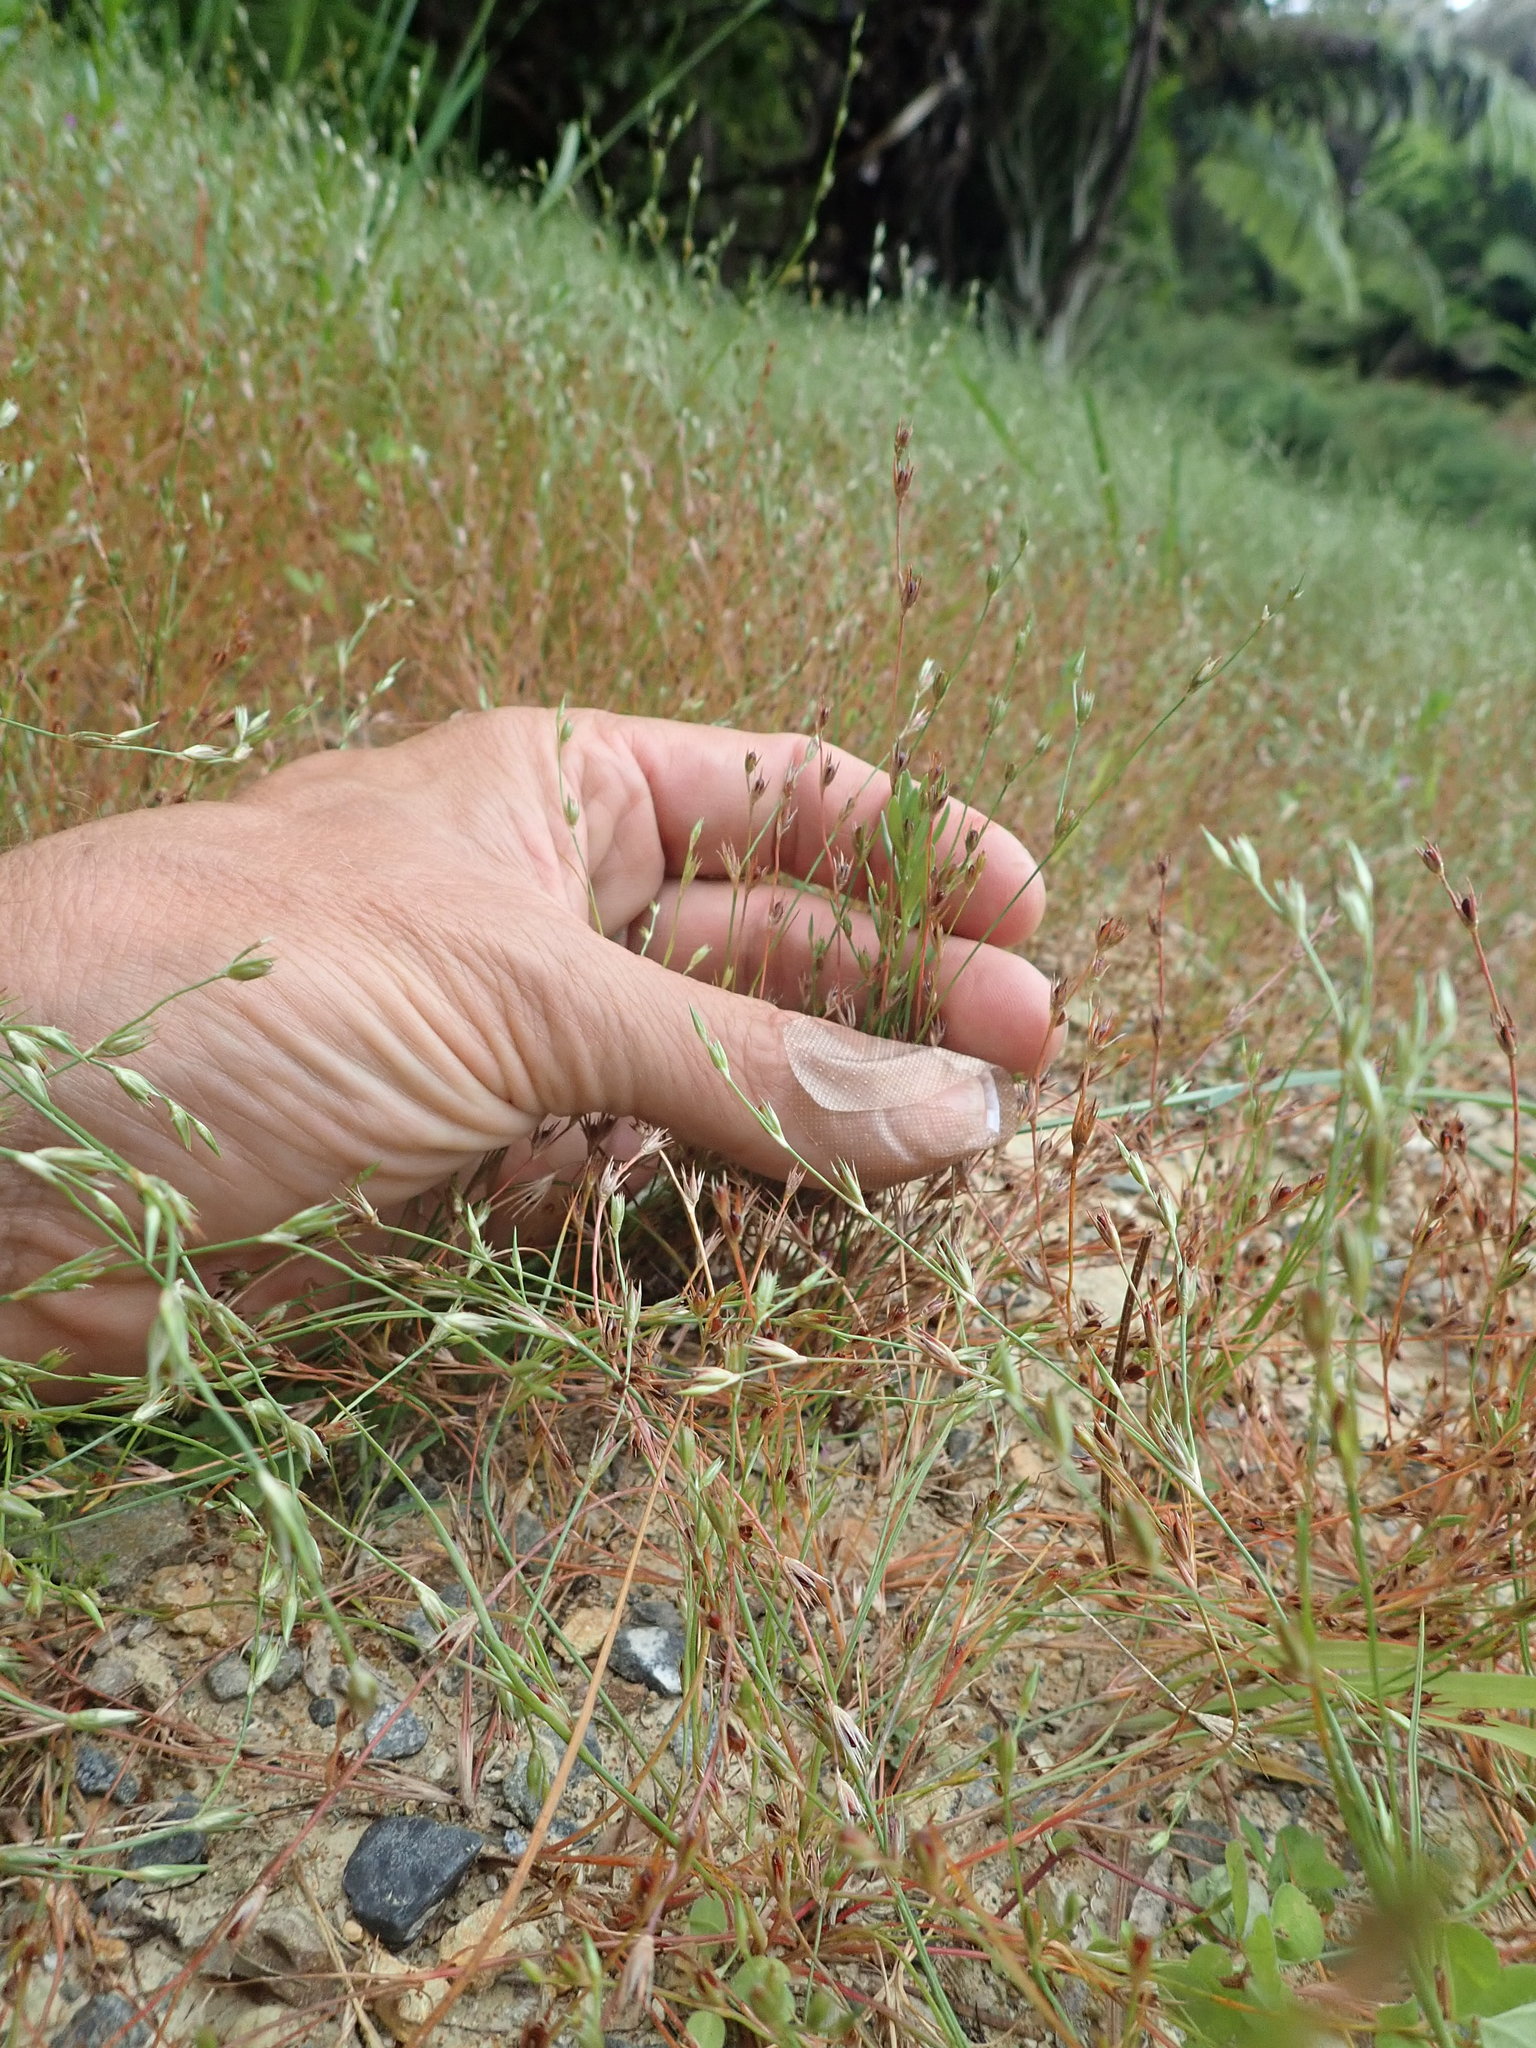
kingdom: Plantae
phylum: Tracheophyta
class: Liliopsida
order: Poales
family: Juncaceae
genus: Juncus
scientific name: Juncus bufonius
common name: Toad rush
